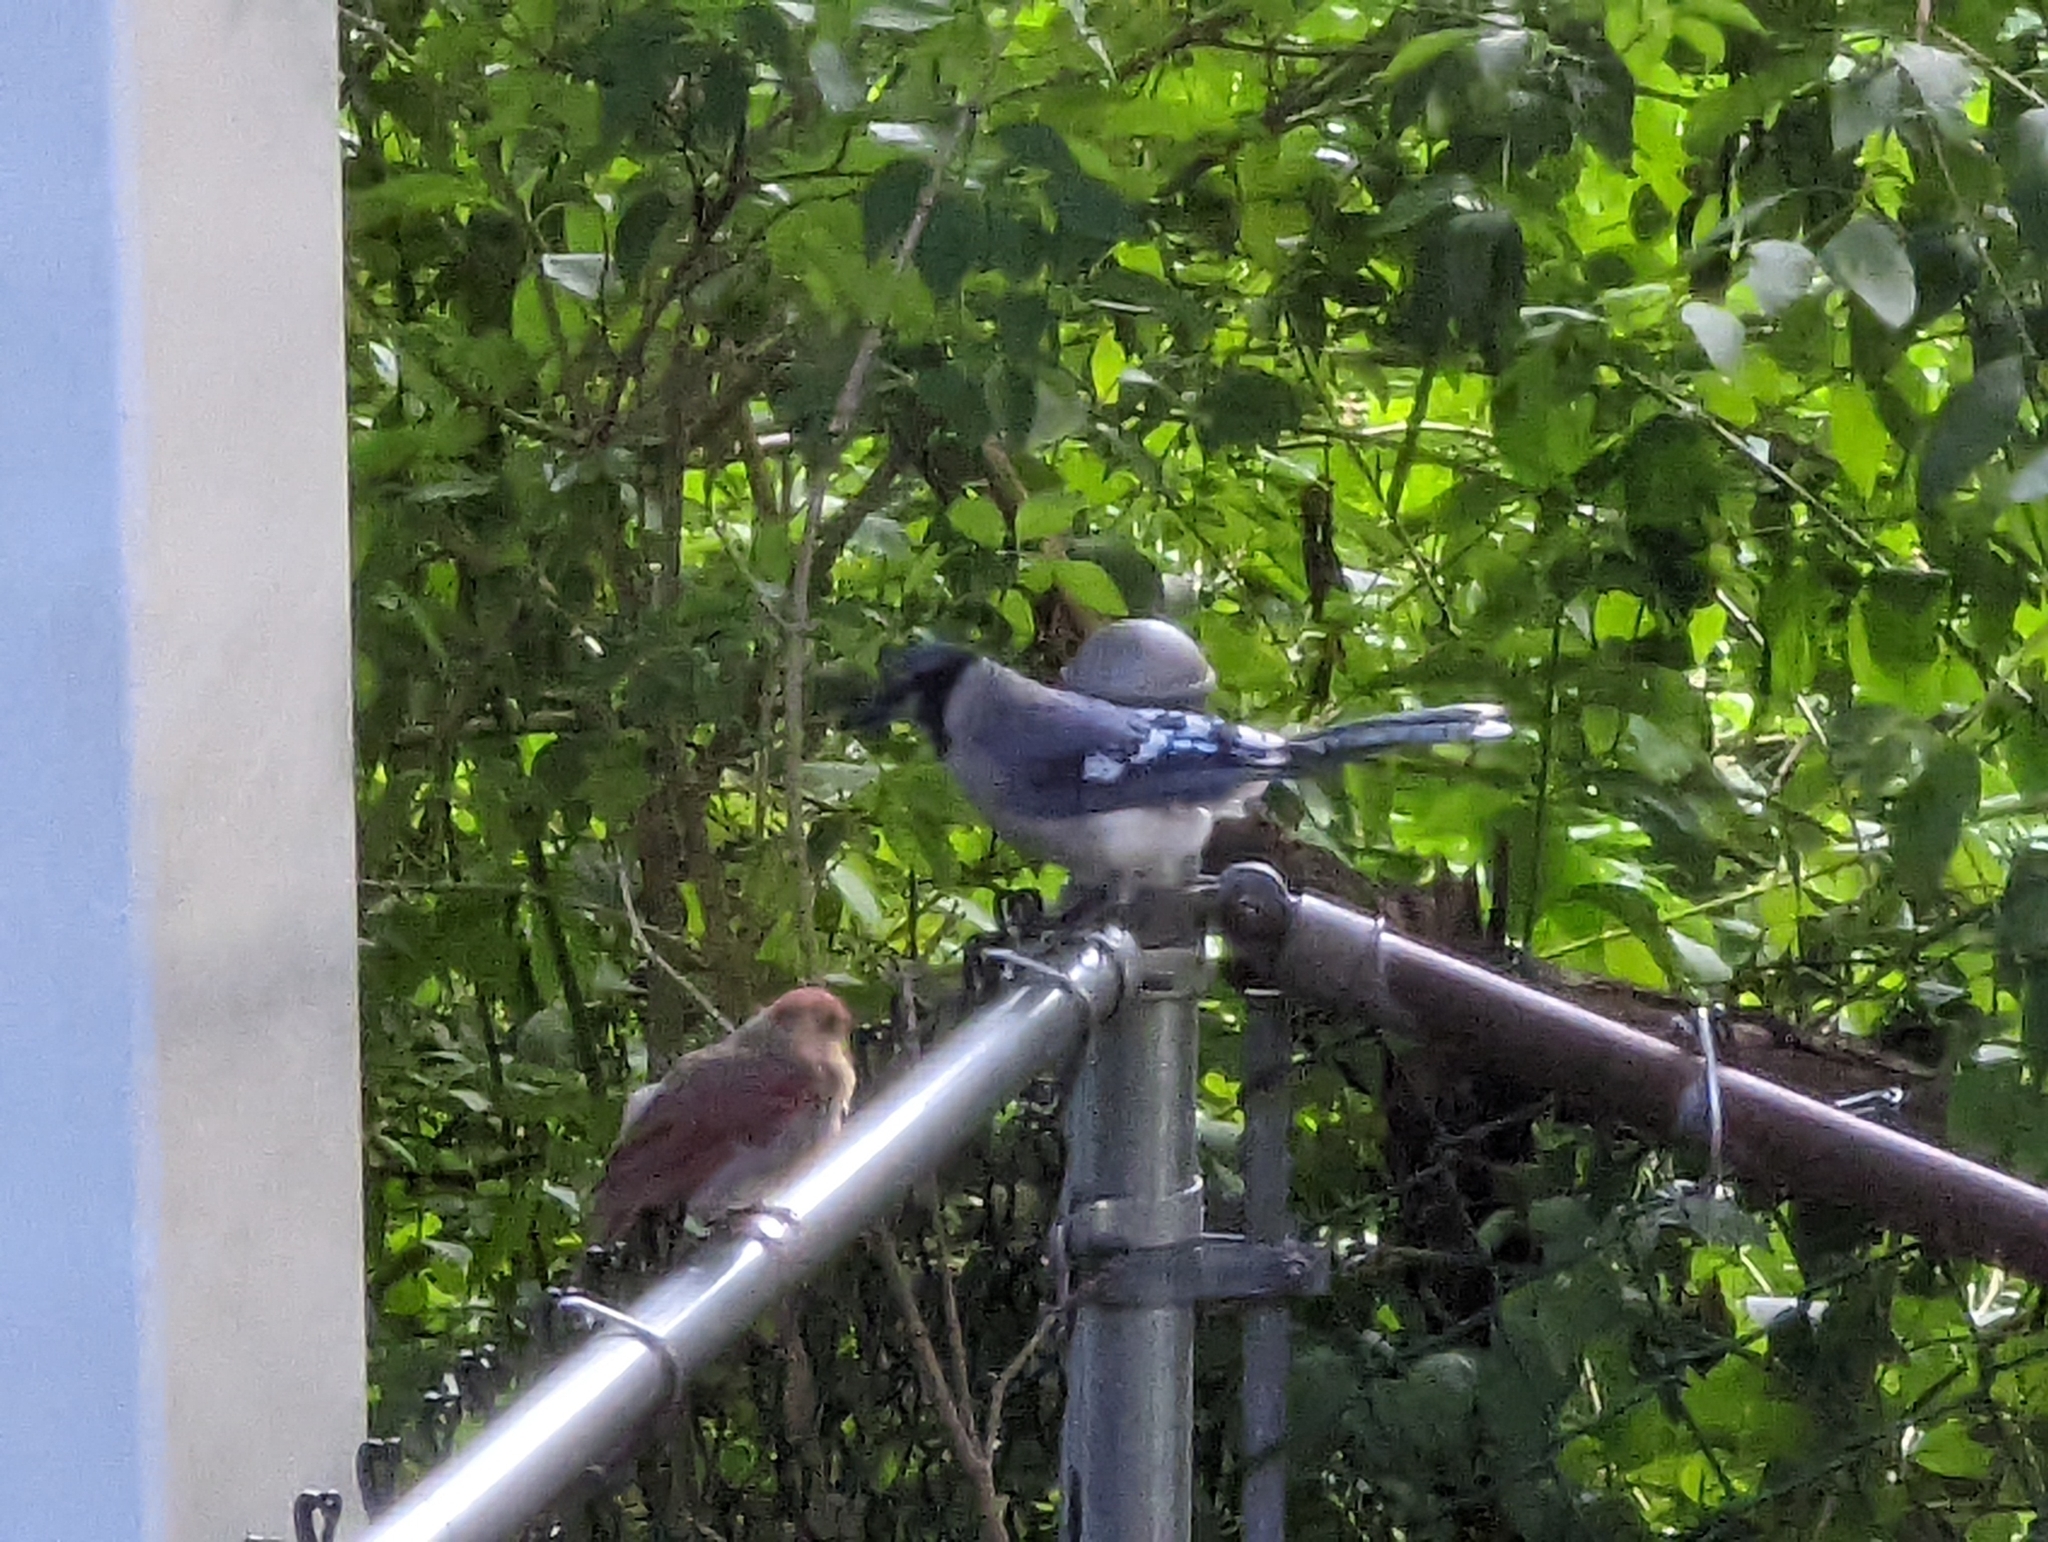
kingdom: Animalia
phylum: Chordata
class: Aves
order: Passeriformes
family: Corvidae
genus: Cyanocitta
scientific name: Cyanocitta cristata
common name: Blue jay
